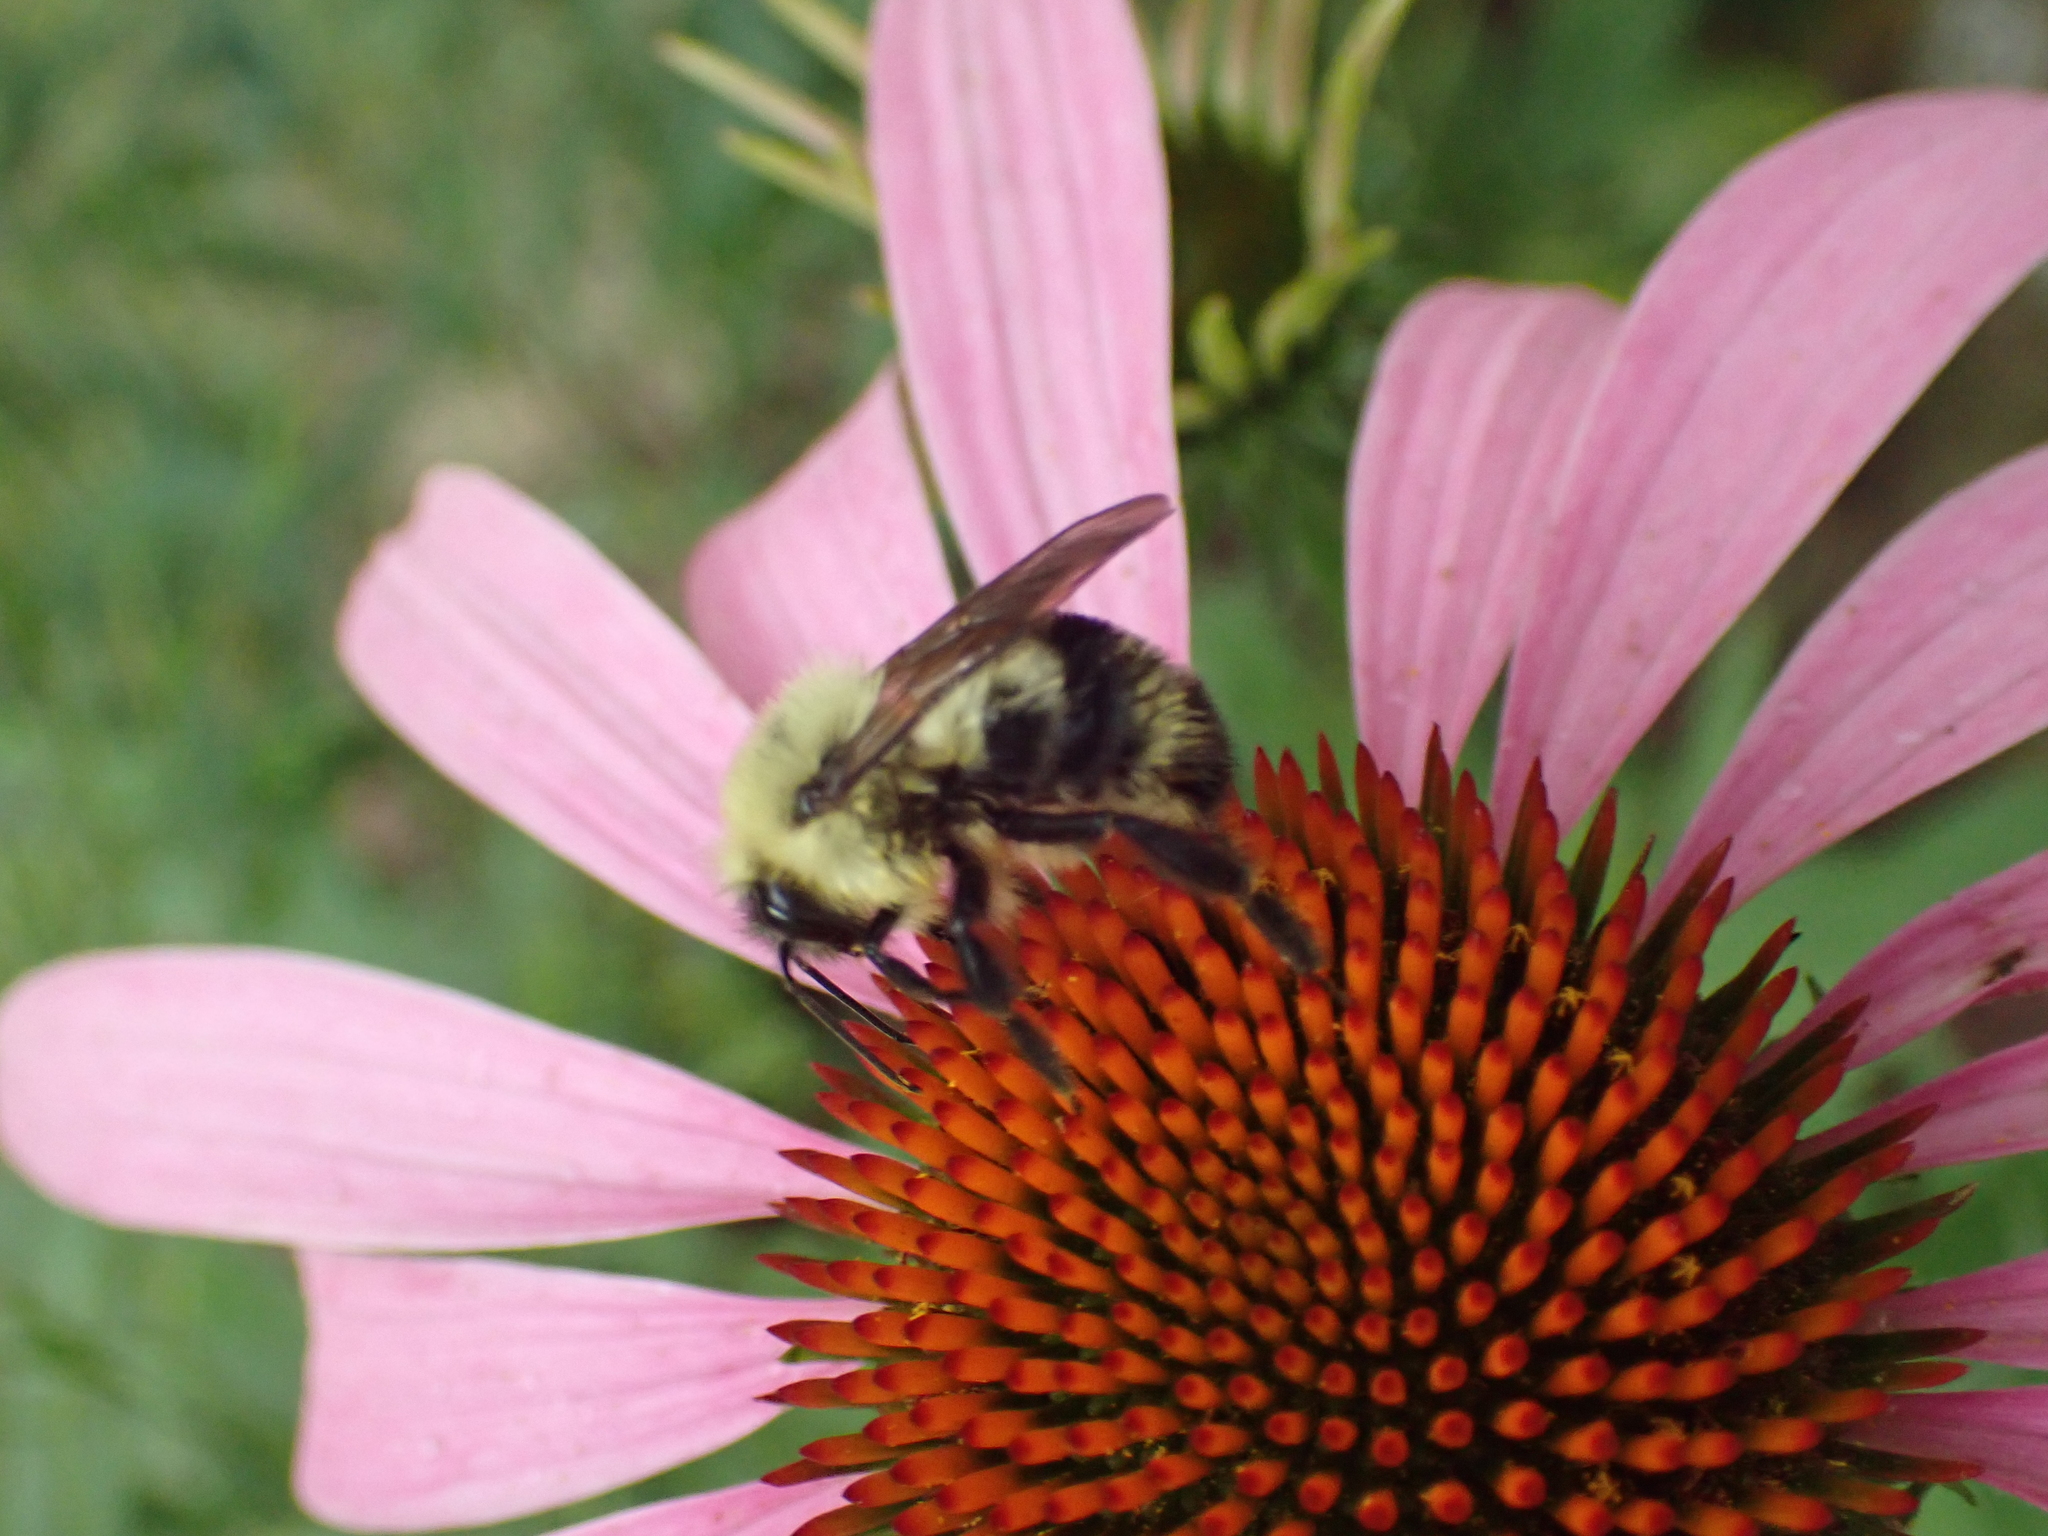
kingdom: Animalia
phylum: Arthropoda
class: Insecta
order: Hymenoptera
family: Apidae
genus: Bombus
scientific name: Bombus bimaculatus
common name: Two-spotted bumble bee
